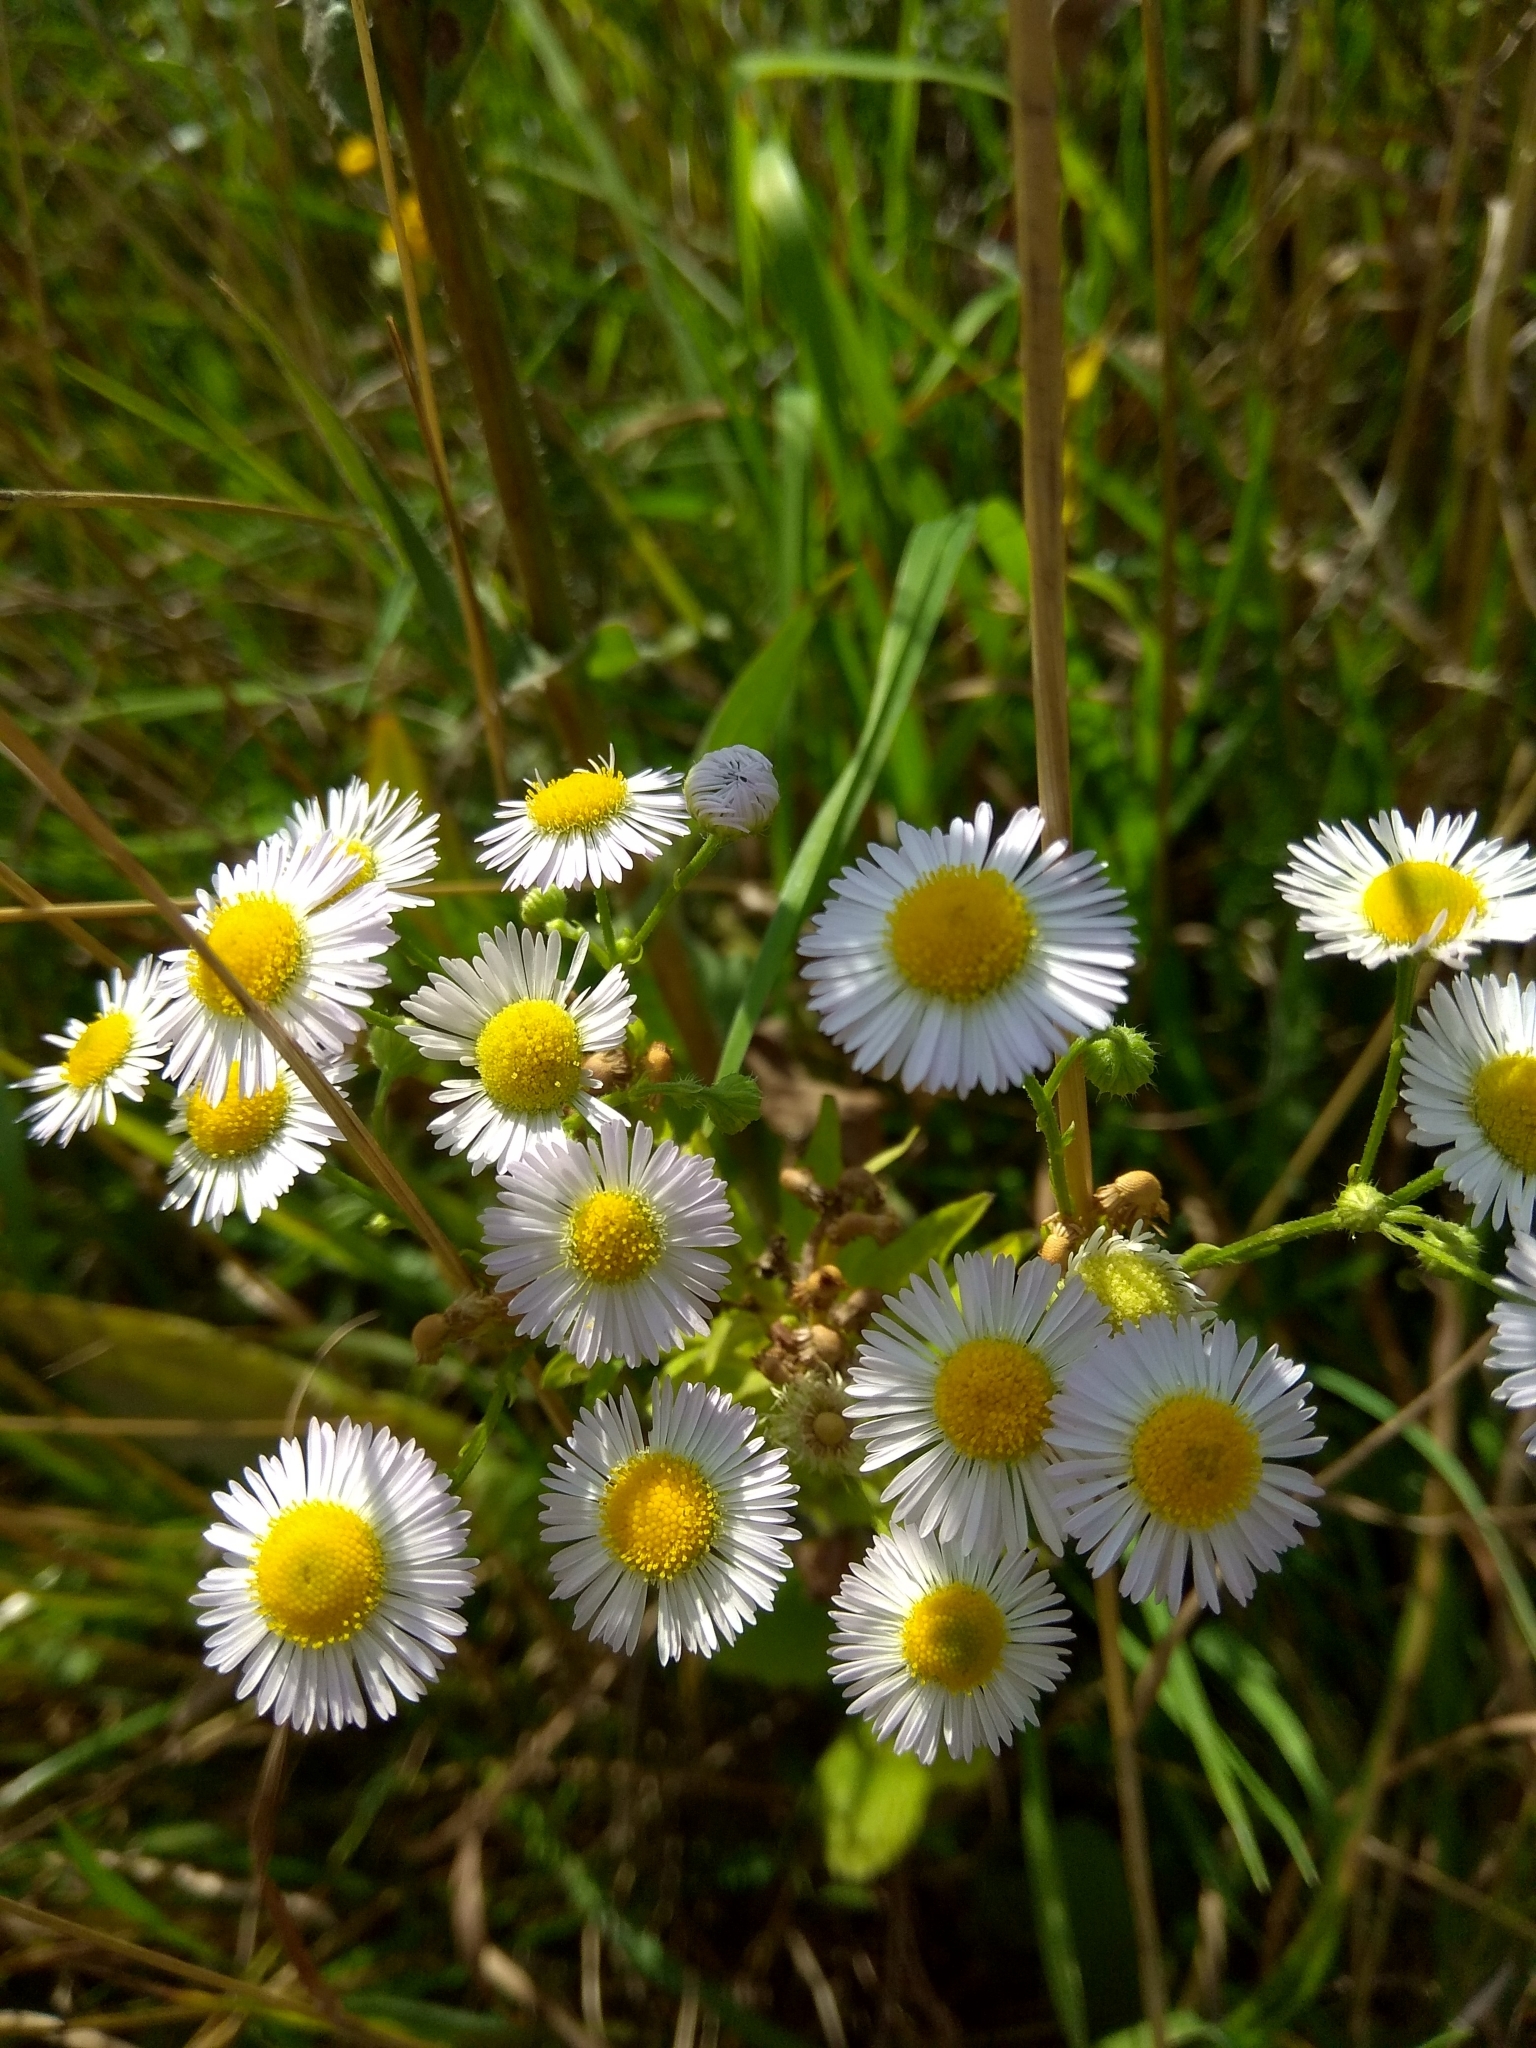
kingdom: Plantae
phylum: Tracheophyta
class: Magnoliopsida
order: Asterales
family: Asteraceae
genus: Erigeron
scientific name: Erigeron annuus
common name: Tall fleabane
